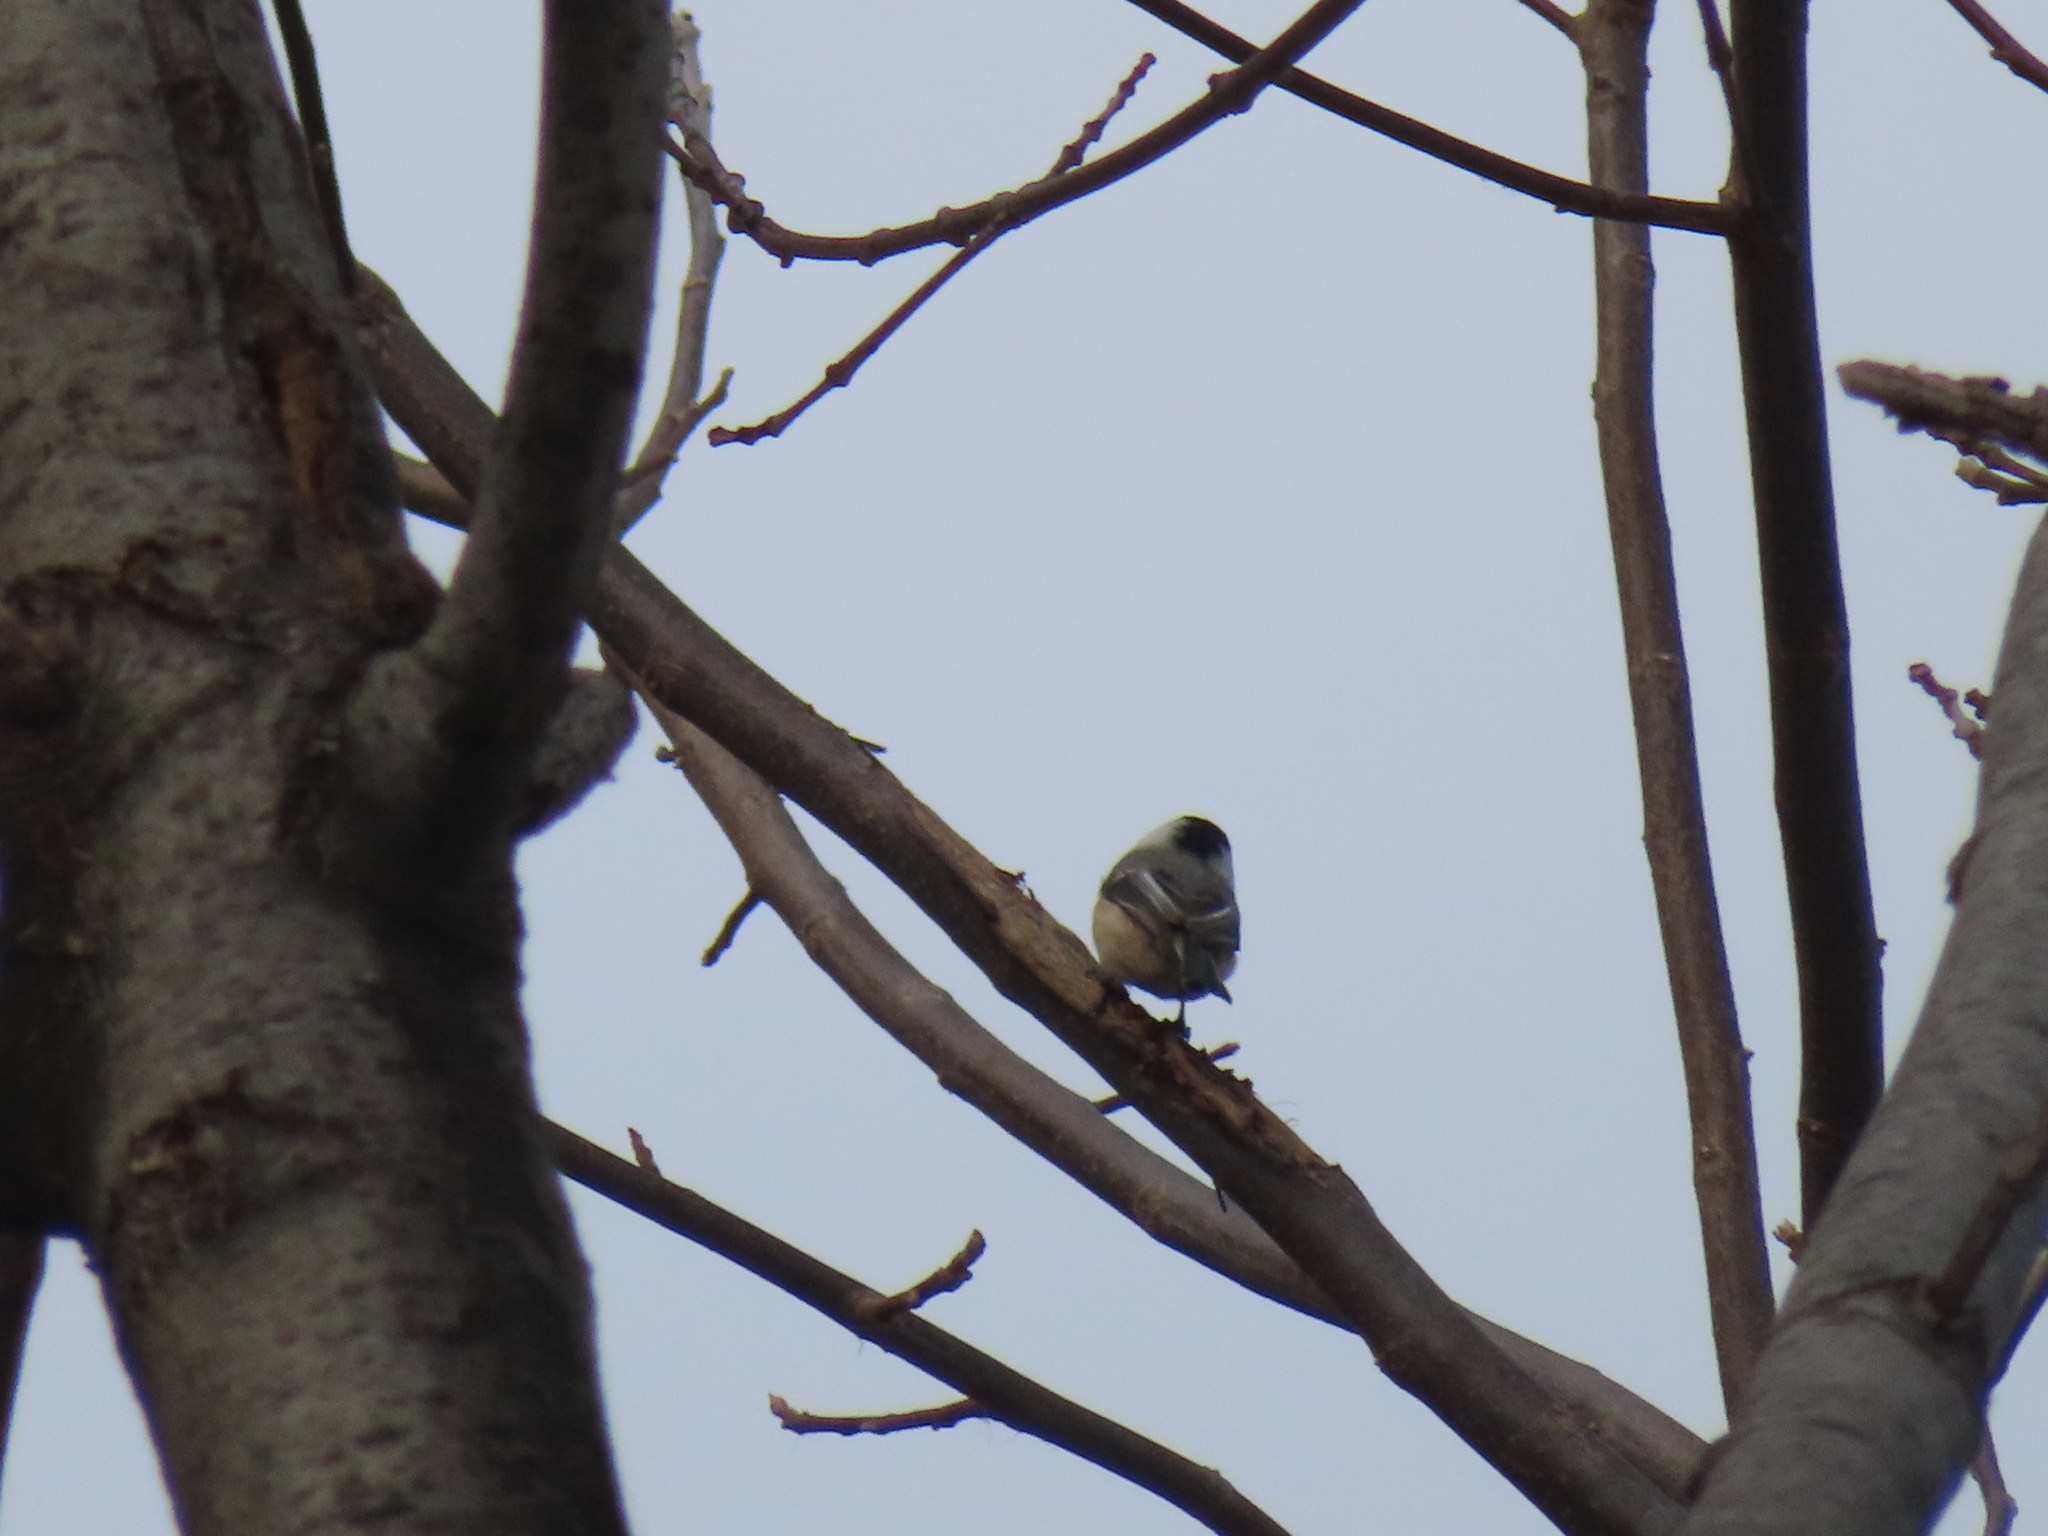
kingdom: Animalia
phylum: Chordata
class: Aves
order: Passeriformes
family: Paridae
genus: Poecile
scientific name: Poecile atricapillus
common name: Black-capped chickadee
